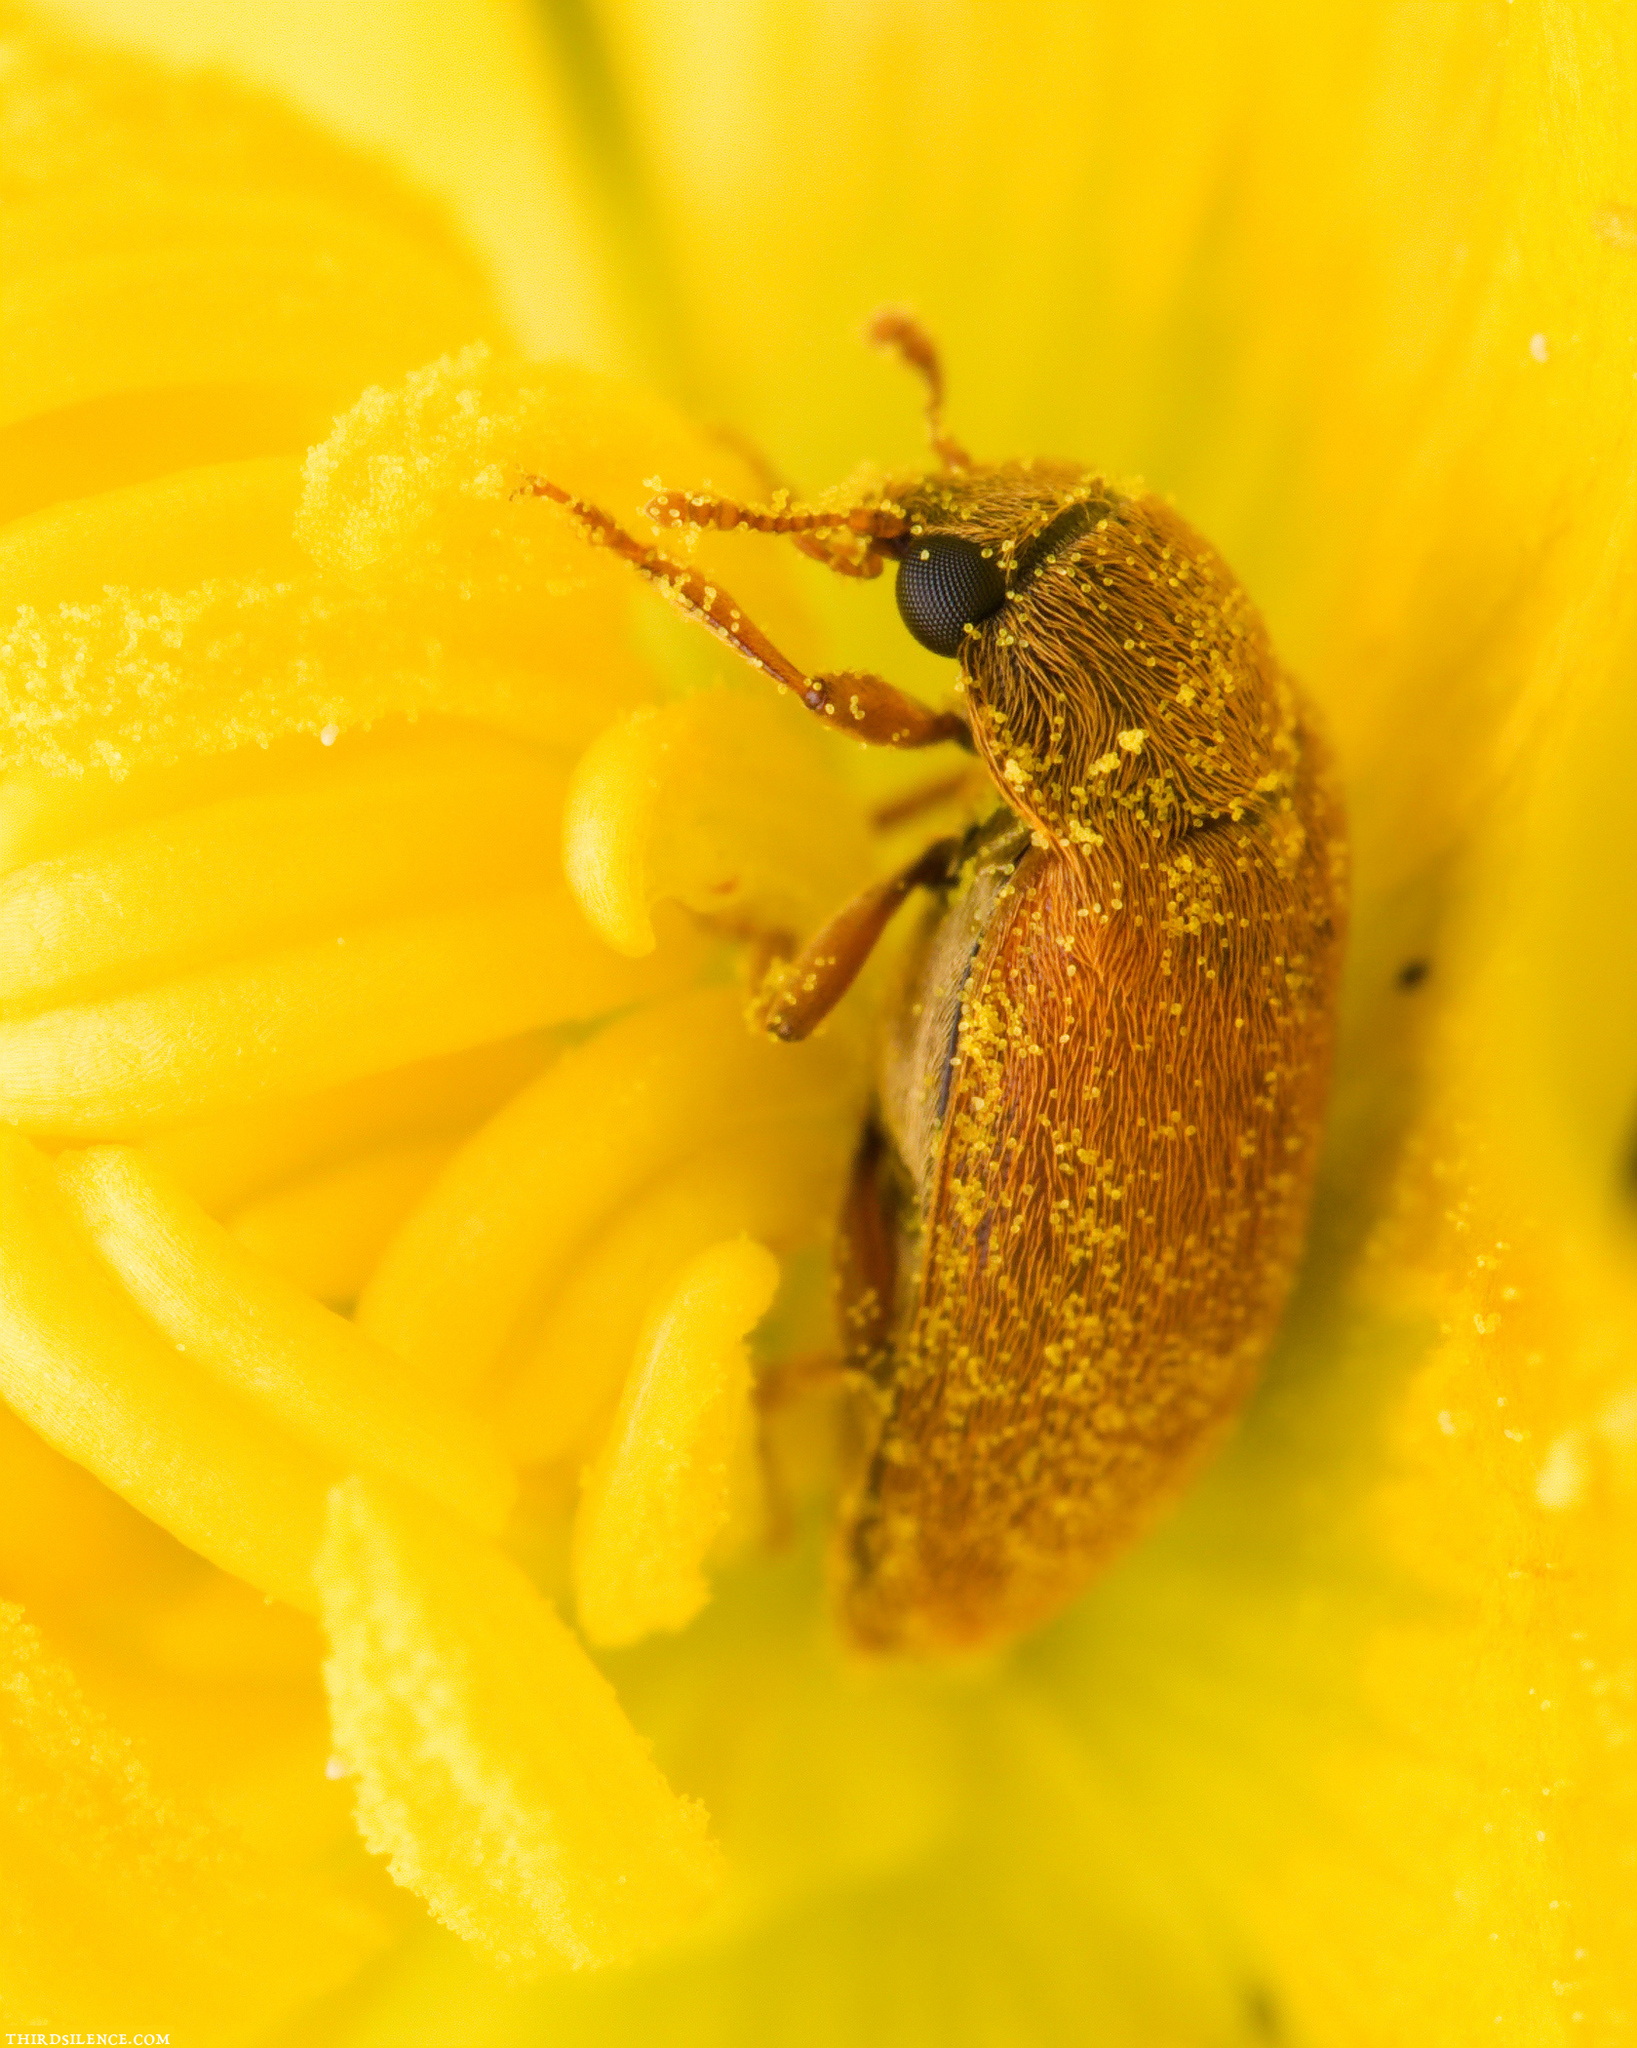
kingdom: Animalia
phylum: Arthropoda
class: Insecta
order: Coleoptera
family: Byturidae
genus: Byturus
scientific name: Byturus ochraceus
